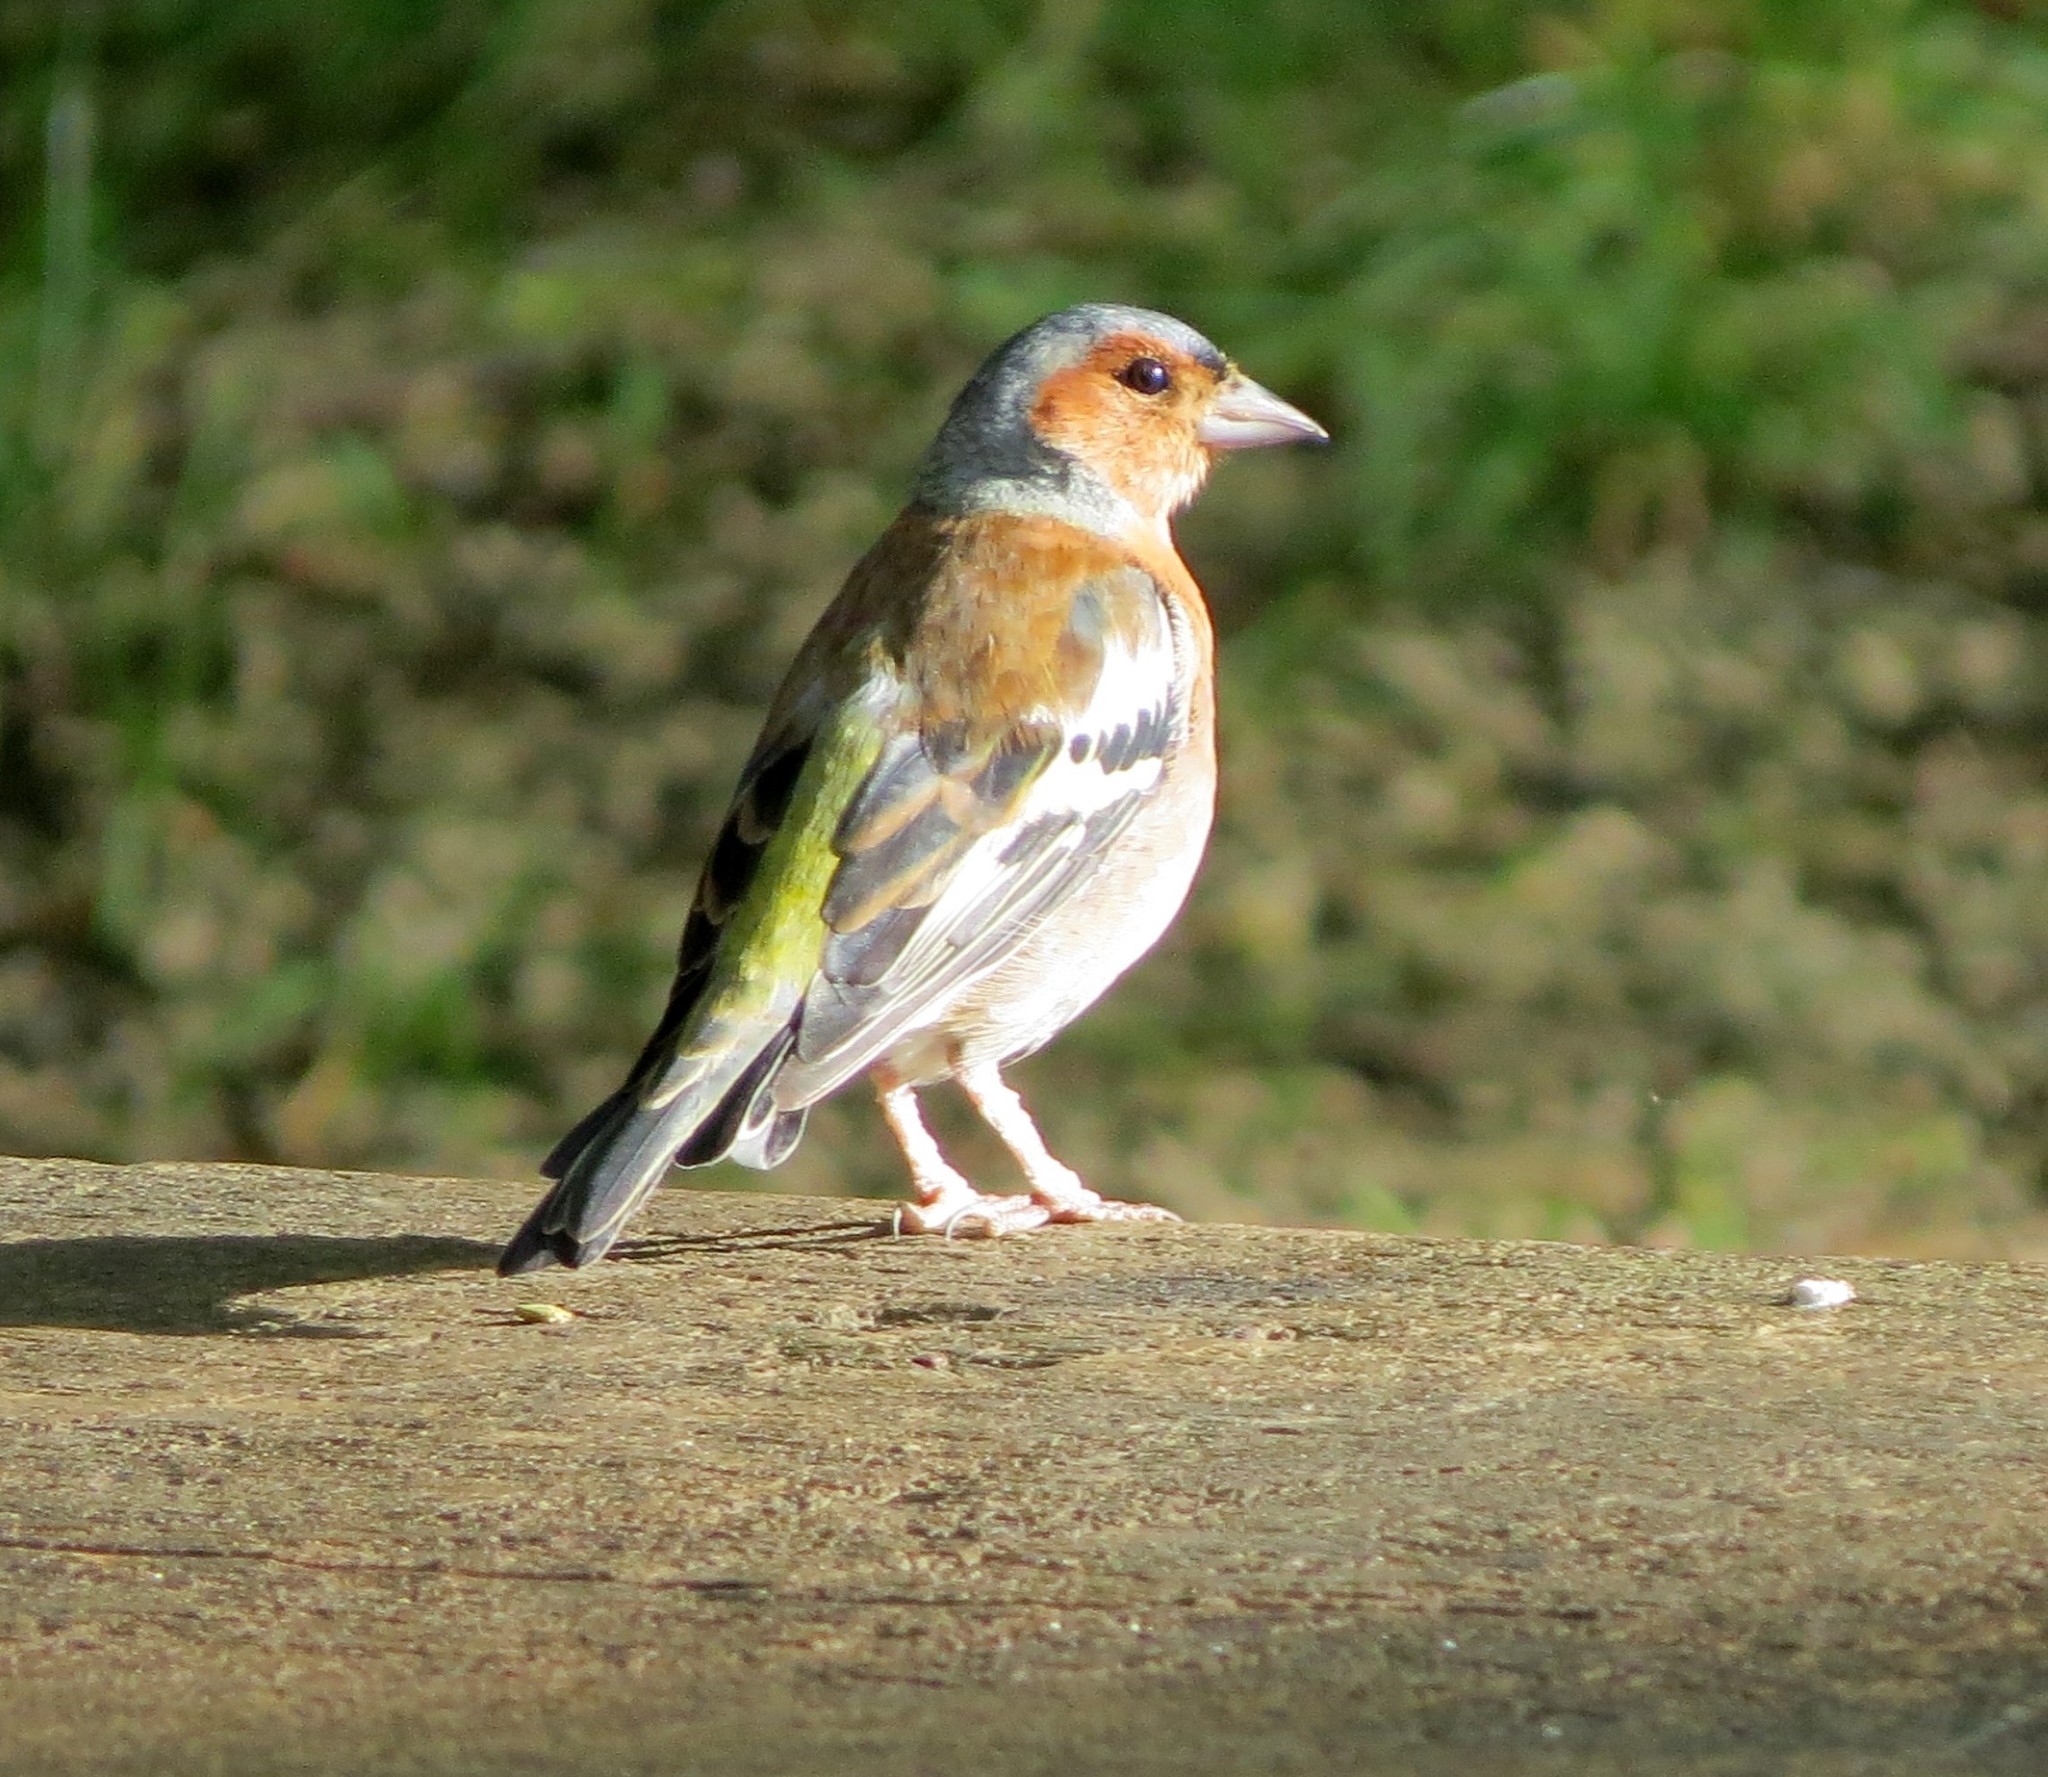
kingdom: Animalia
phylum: Chordata
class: Aves
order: Passeriformes
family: Fringillidae
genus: Fringilla
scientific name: Fringilla coelebs
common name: Common chaffinch
